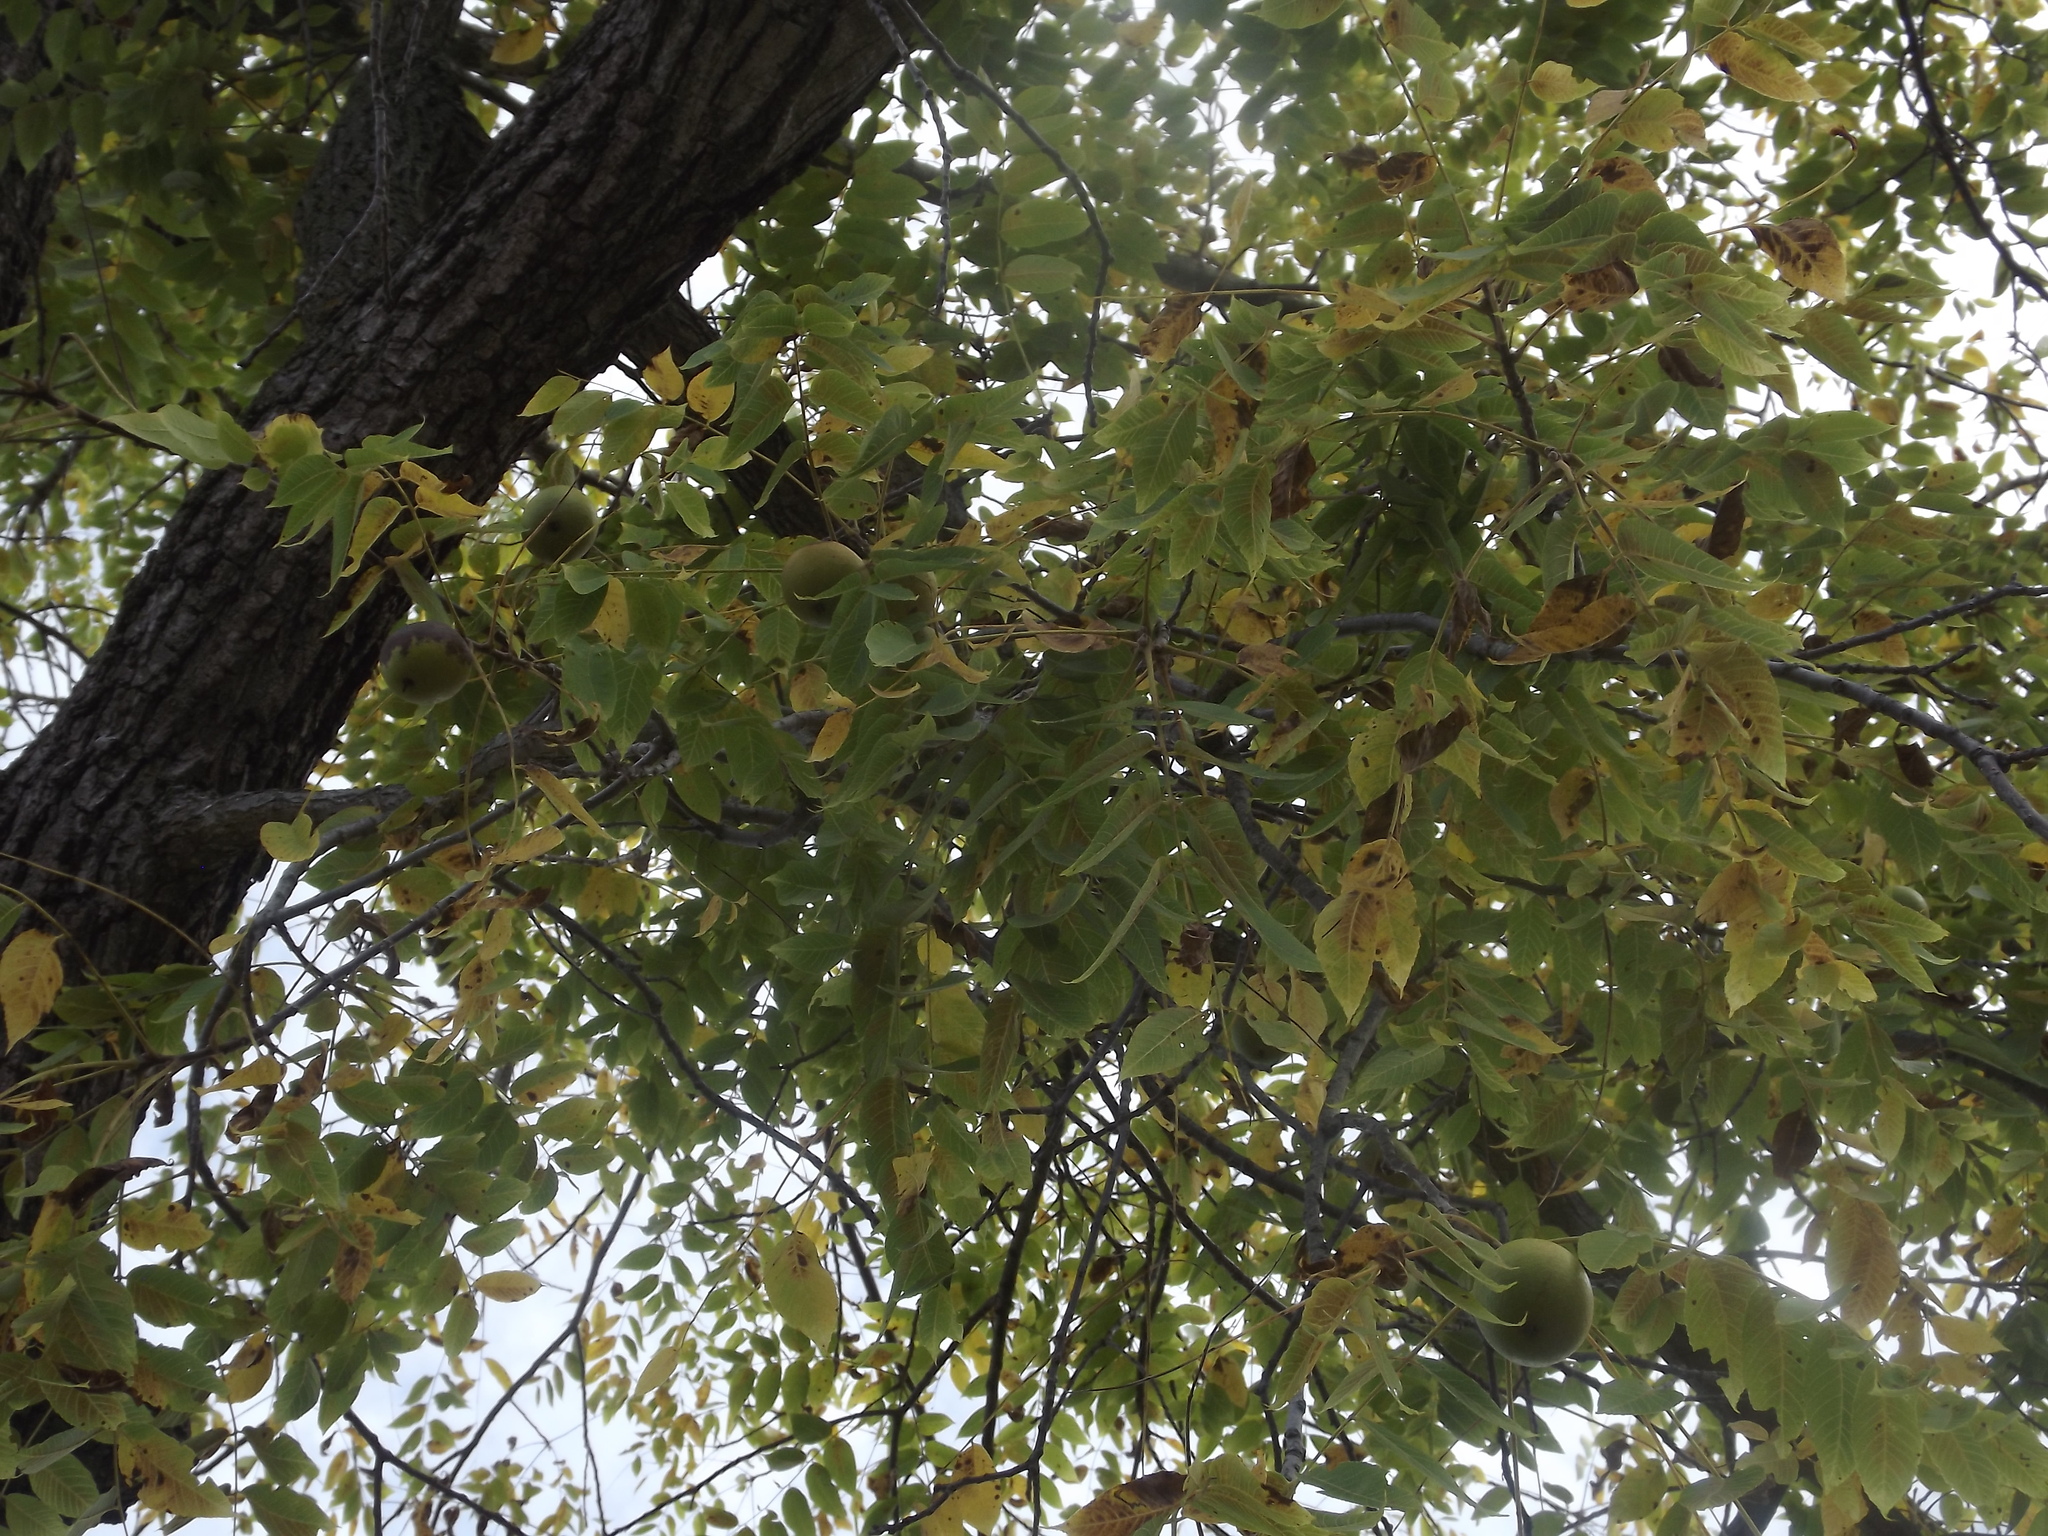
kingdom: Plantae
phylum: Tracheophyta
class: Magnoliopsida
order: Fagales
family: Juglandaceae
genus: Juglans
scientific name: Juglans nigra
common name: Black walnut
